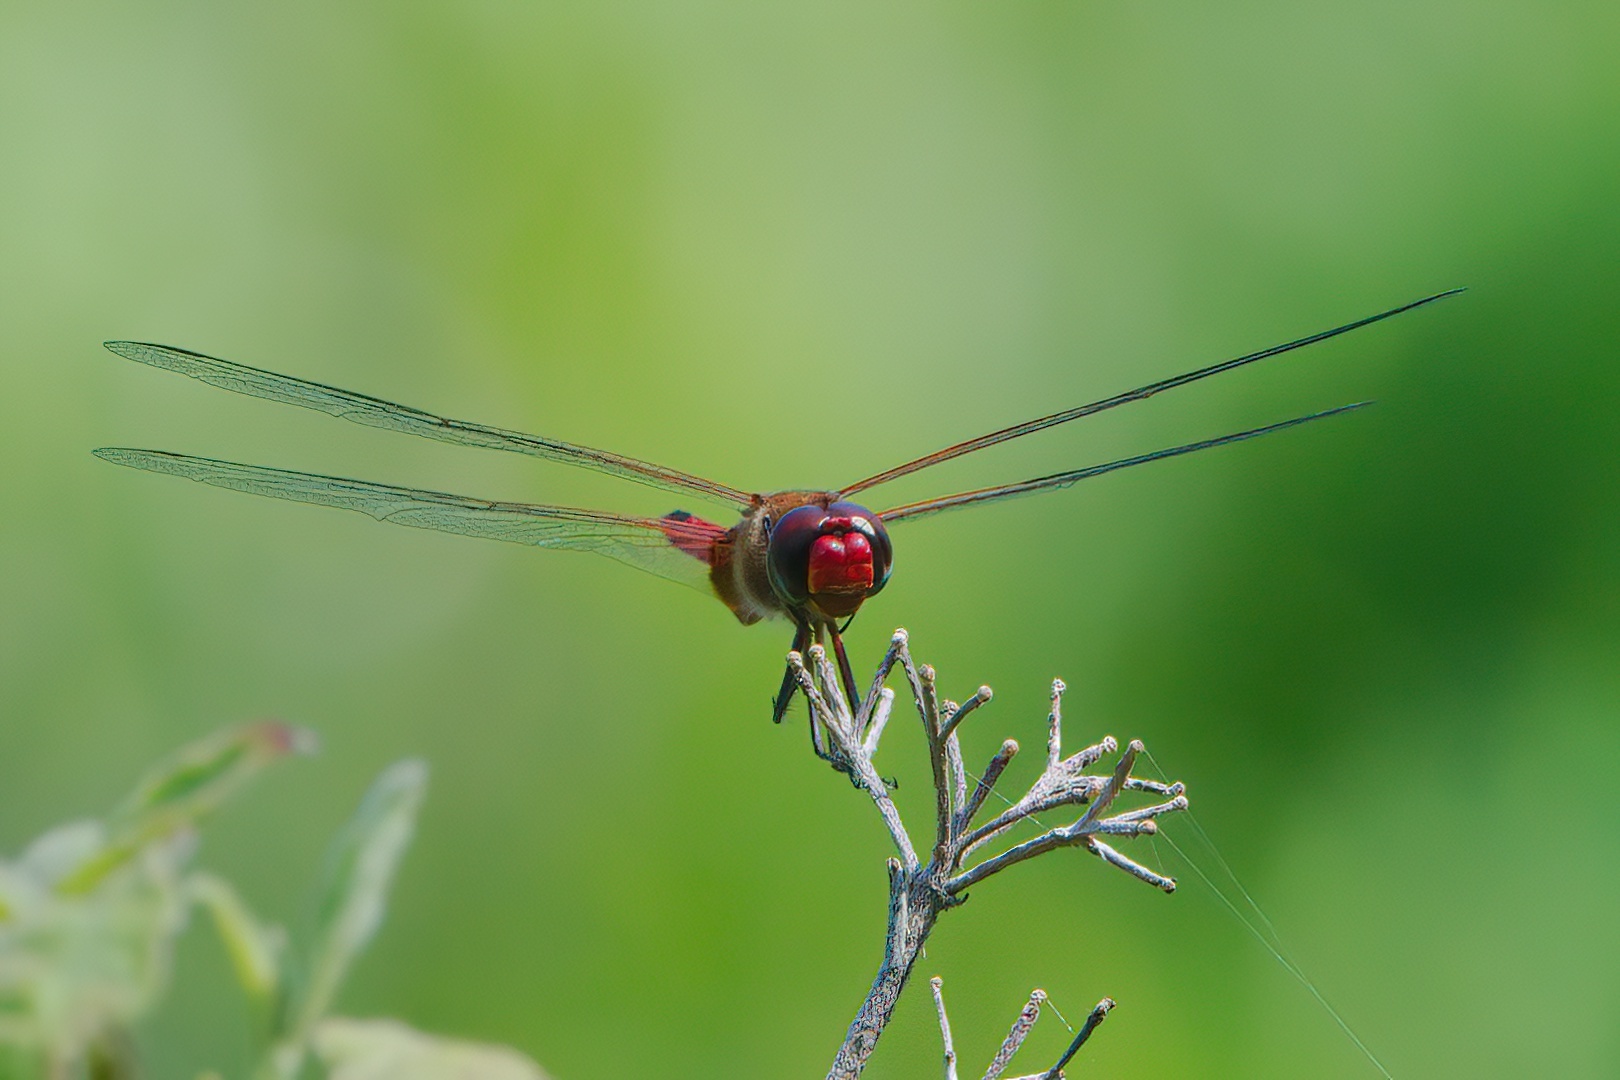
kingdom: Animalia
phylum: Arthropoda
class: Insecta
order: Odonata
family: Libellulidae
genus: Tramea
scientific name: Tramea abdominalis
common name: Vermilion saddlebags
